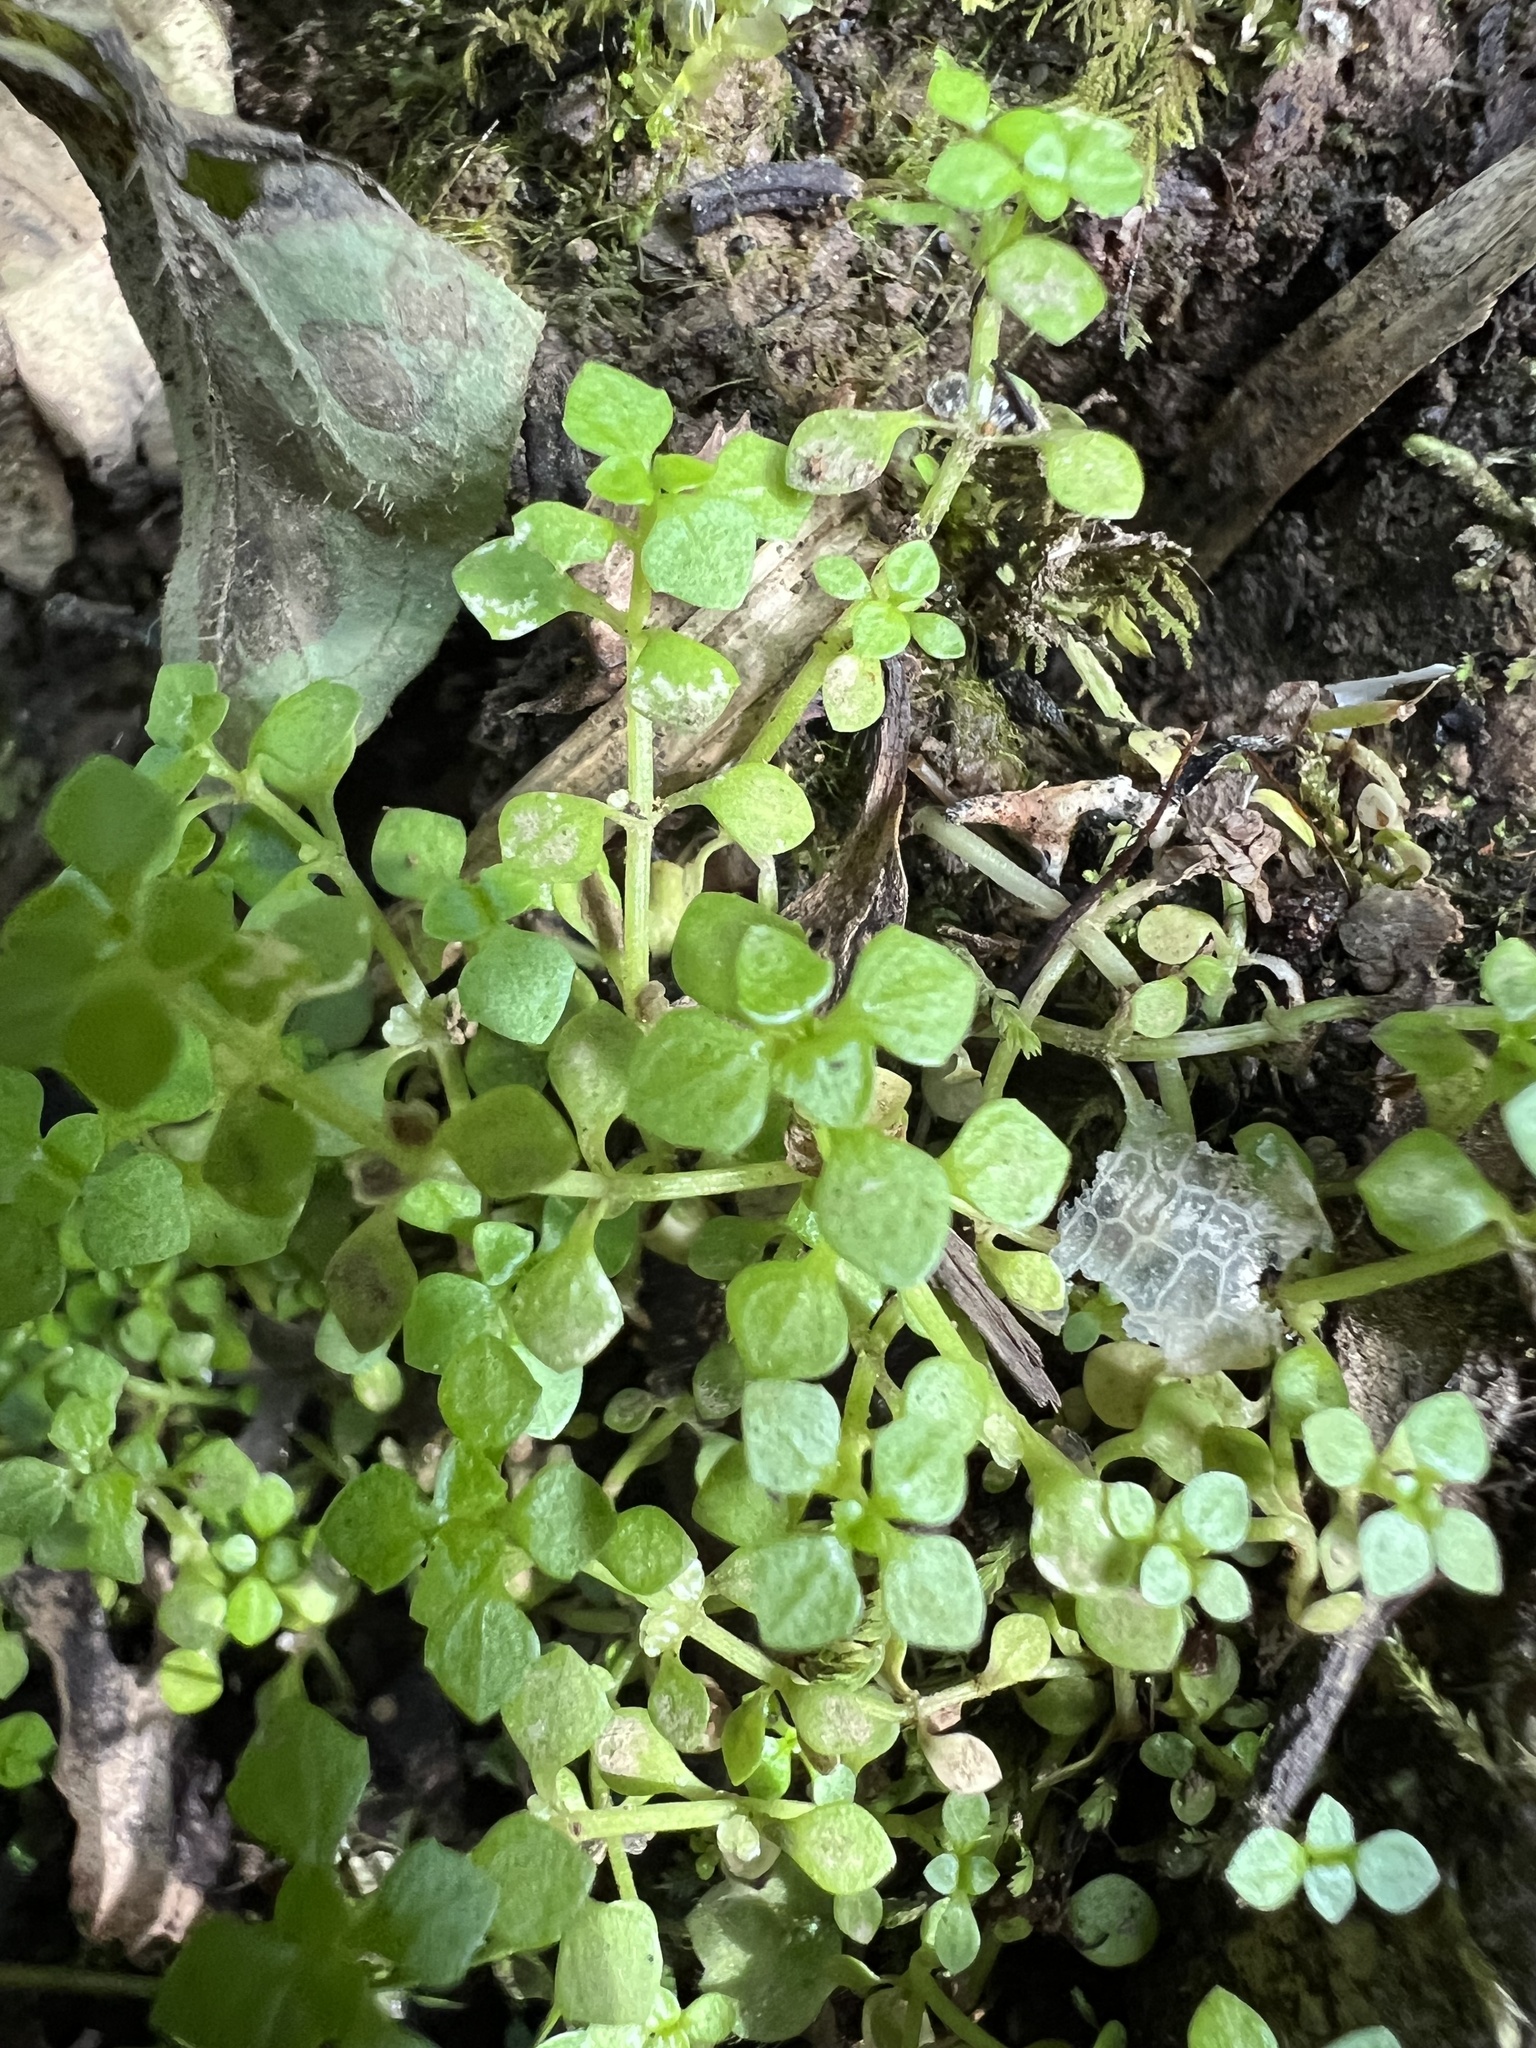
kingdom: Plantae
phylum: Tracheophyta
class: Magnoliopsida
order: Lamiales
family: Plantaginaceae
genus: Callitriche
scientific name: Callitriche muelleri
